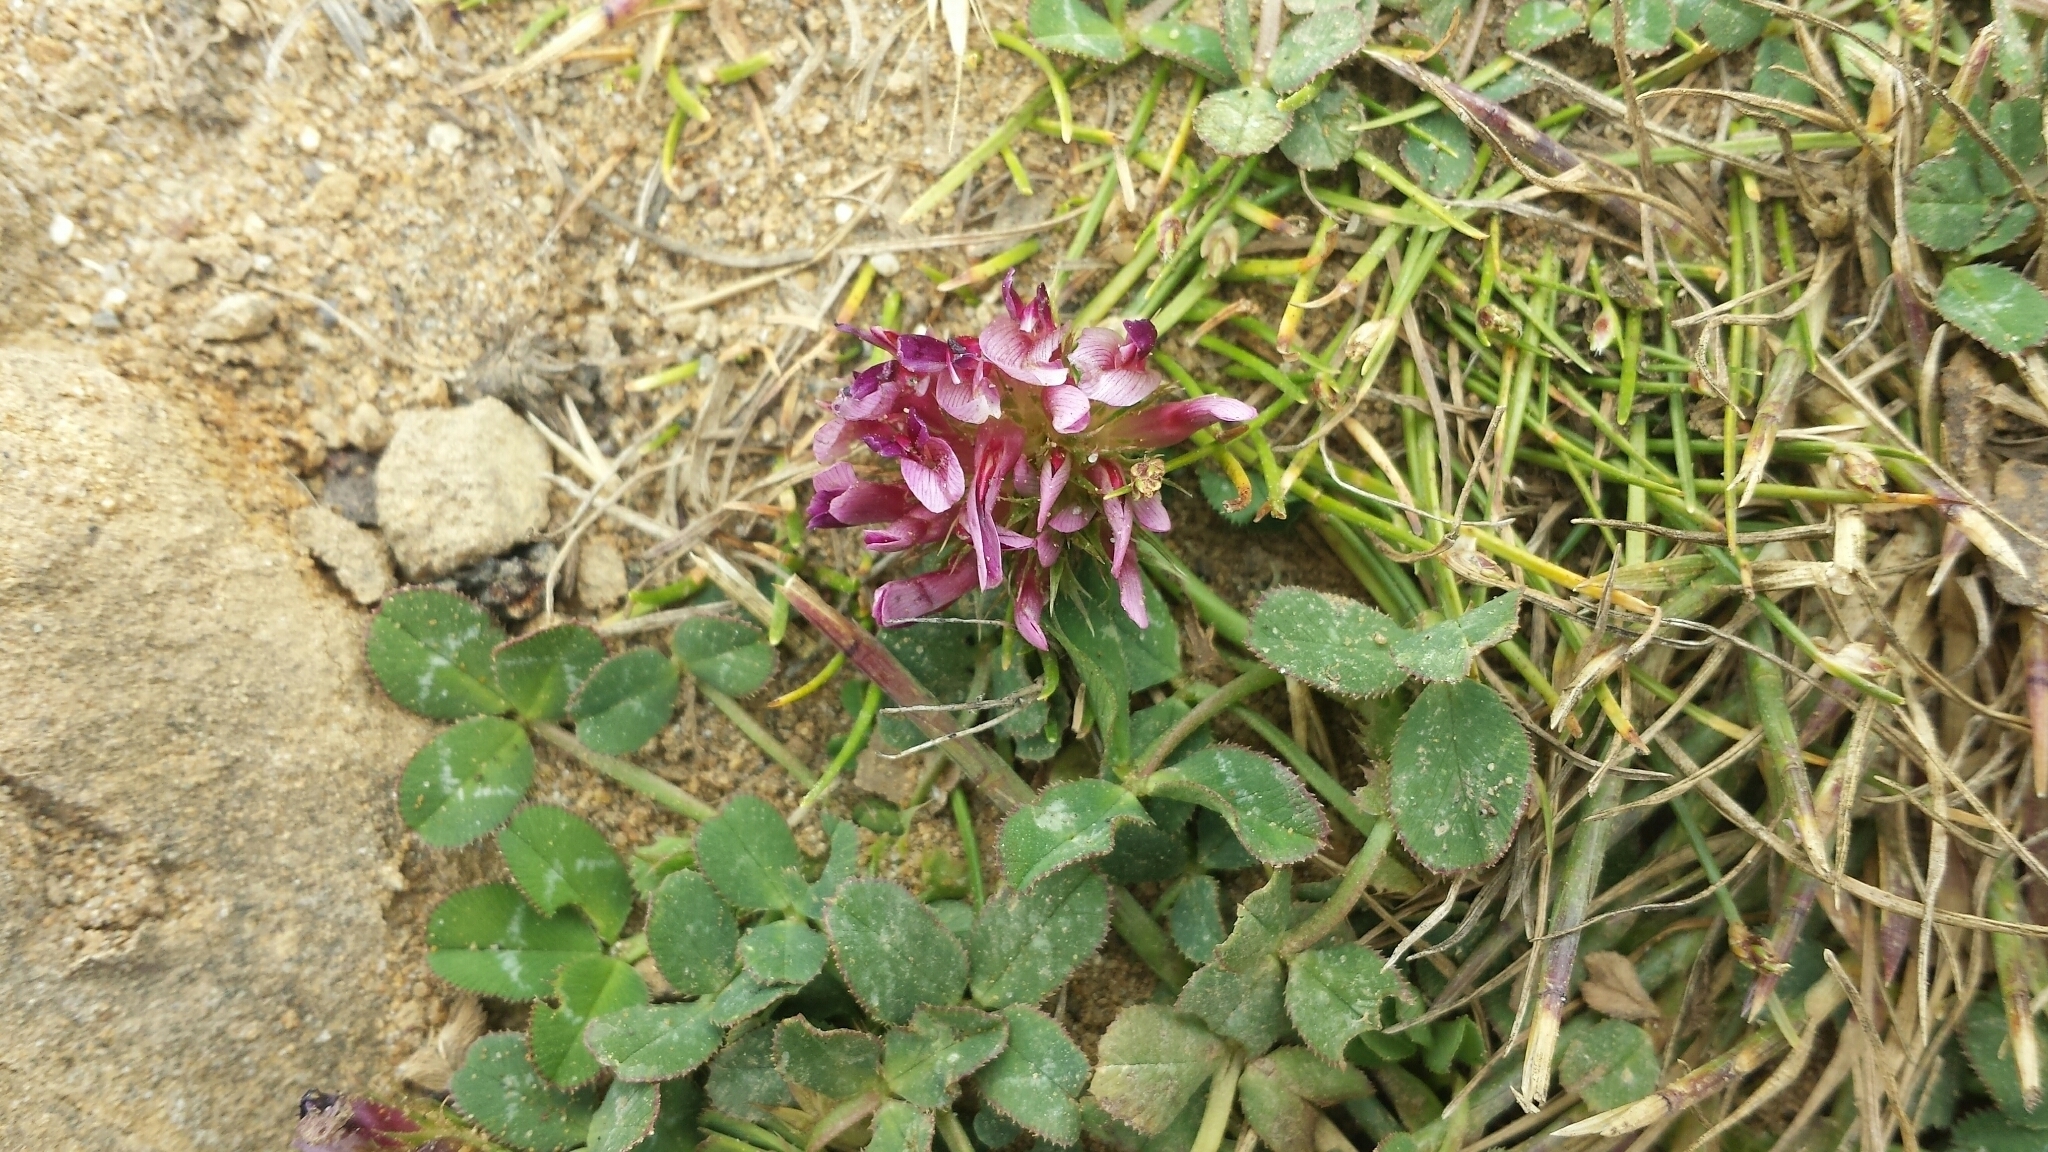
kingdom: Plantae
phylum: Tracheophyta
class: Magnoliopsida
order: Fabales
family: Fabaceae
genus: Trifolium
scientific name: Trifolium wormskioldii
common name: Springbank clover
